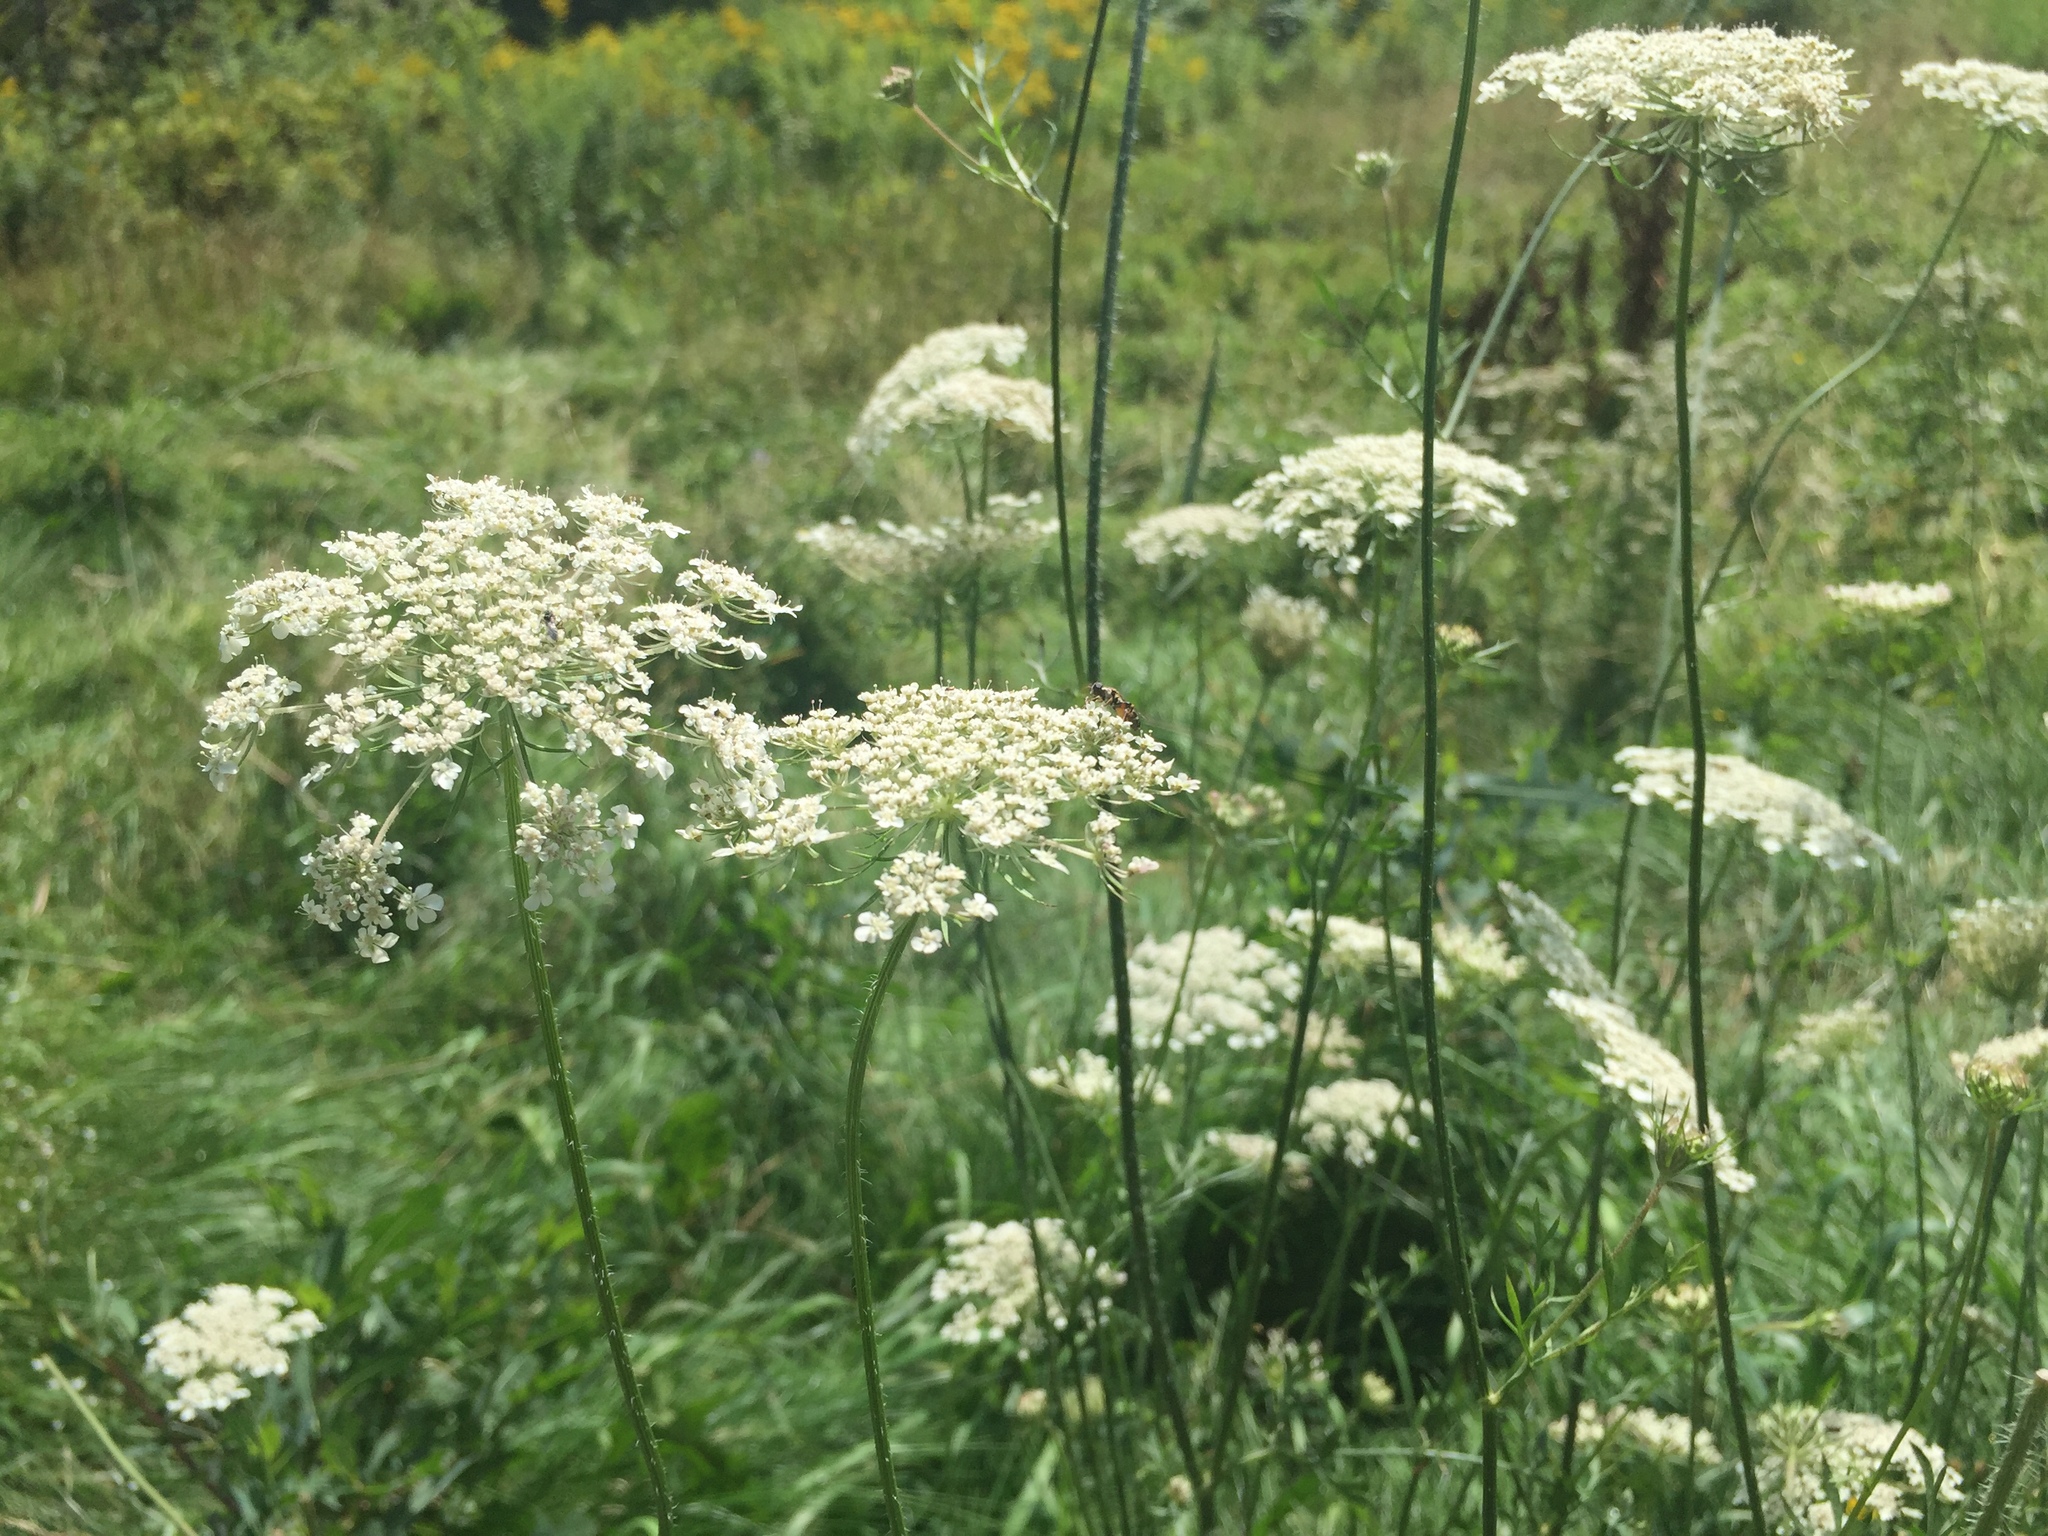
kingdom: Plantae
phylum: Tracheophyta
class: Magnoliopsida
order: Apiales
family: Apiaceae
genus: Daucus
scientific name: Daucus carota
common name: Wild carrot
